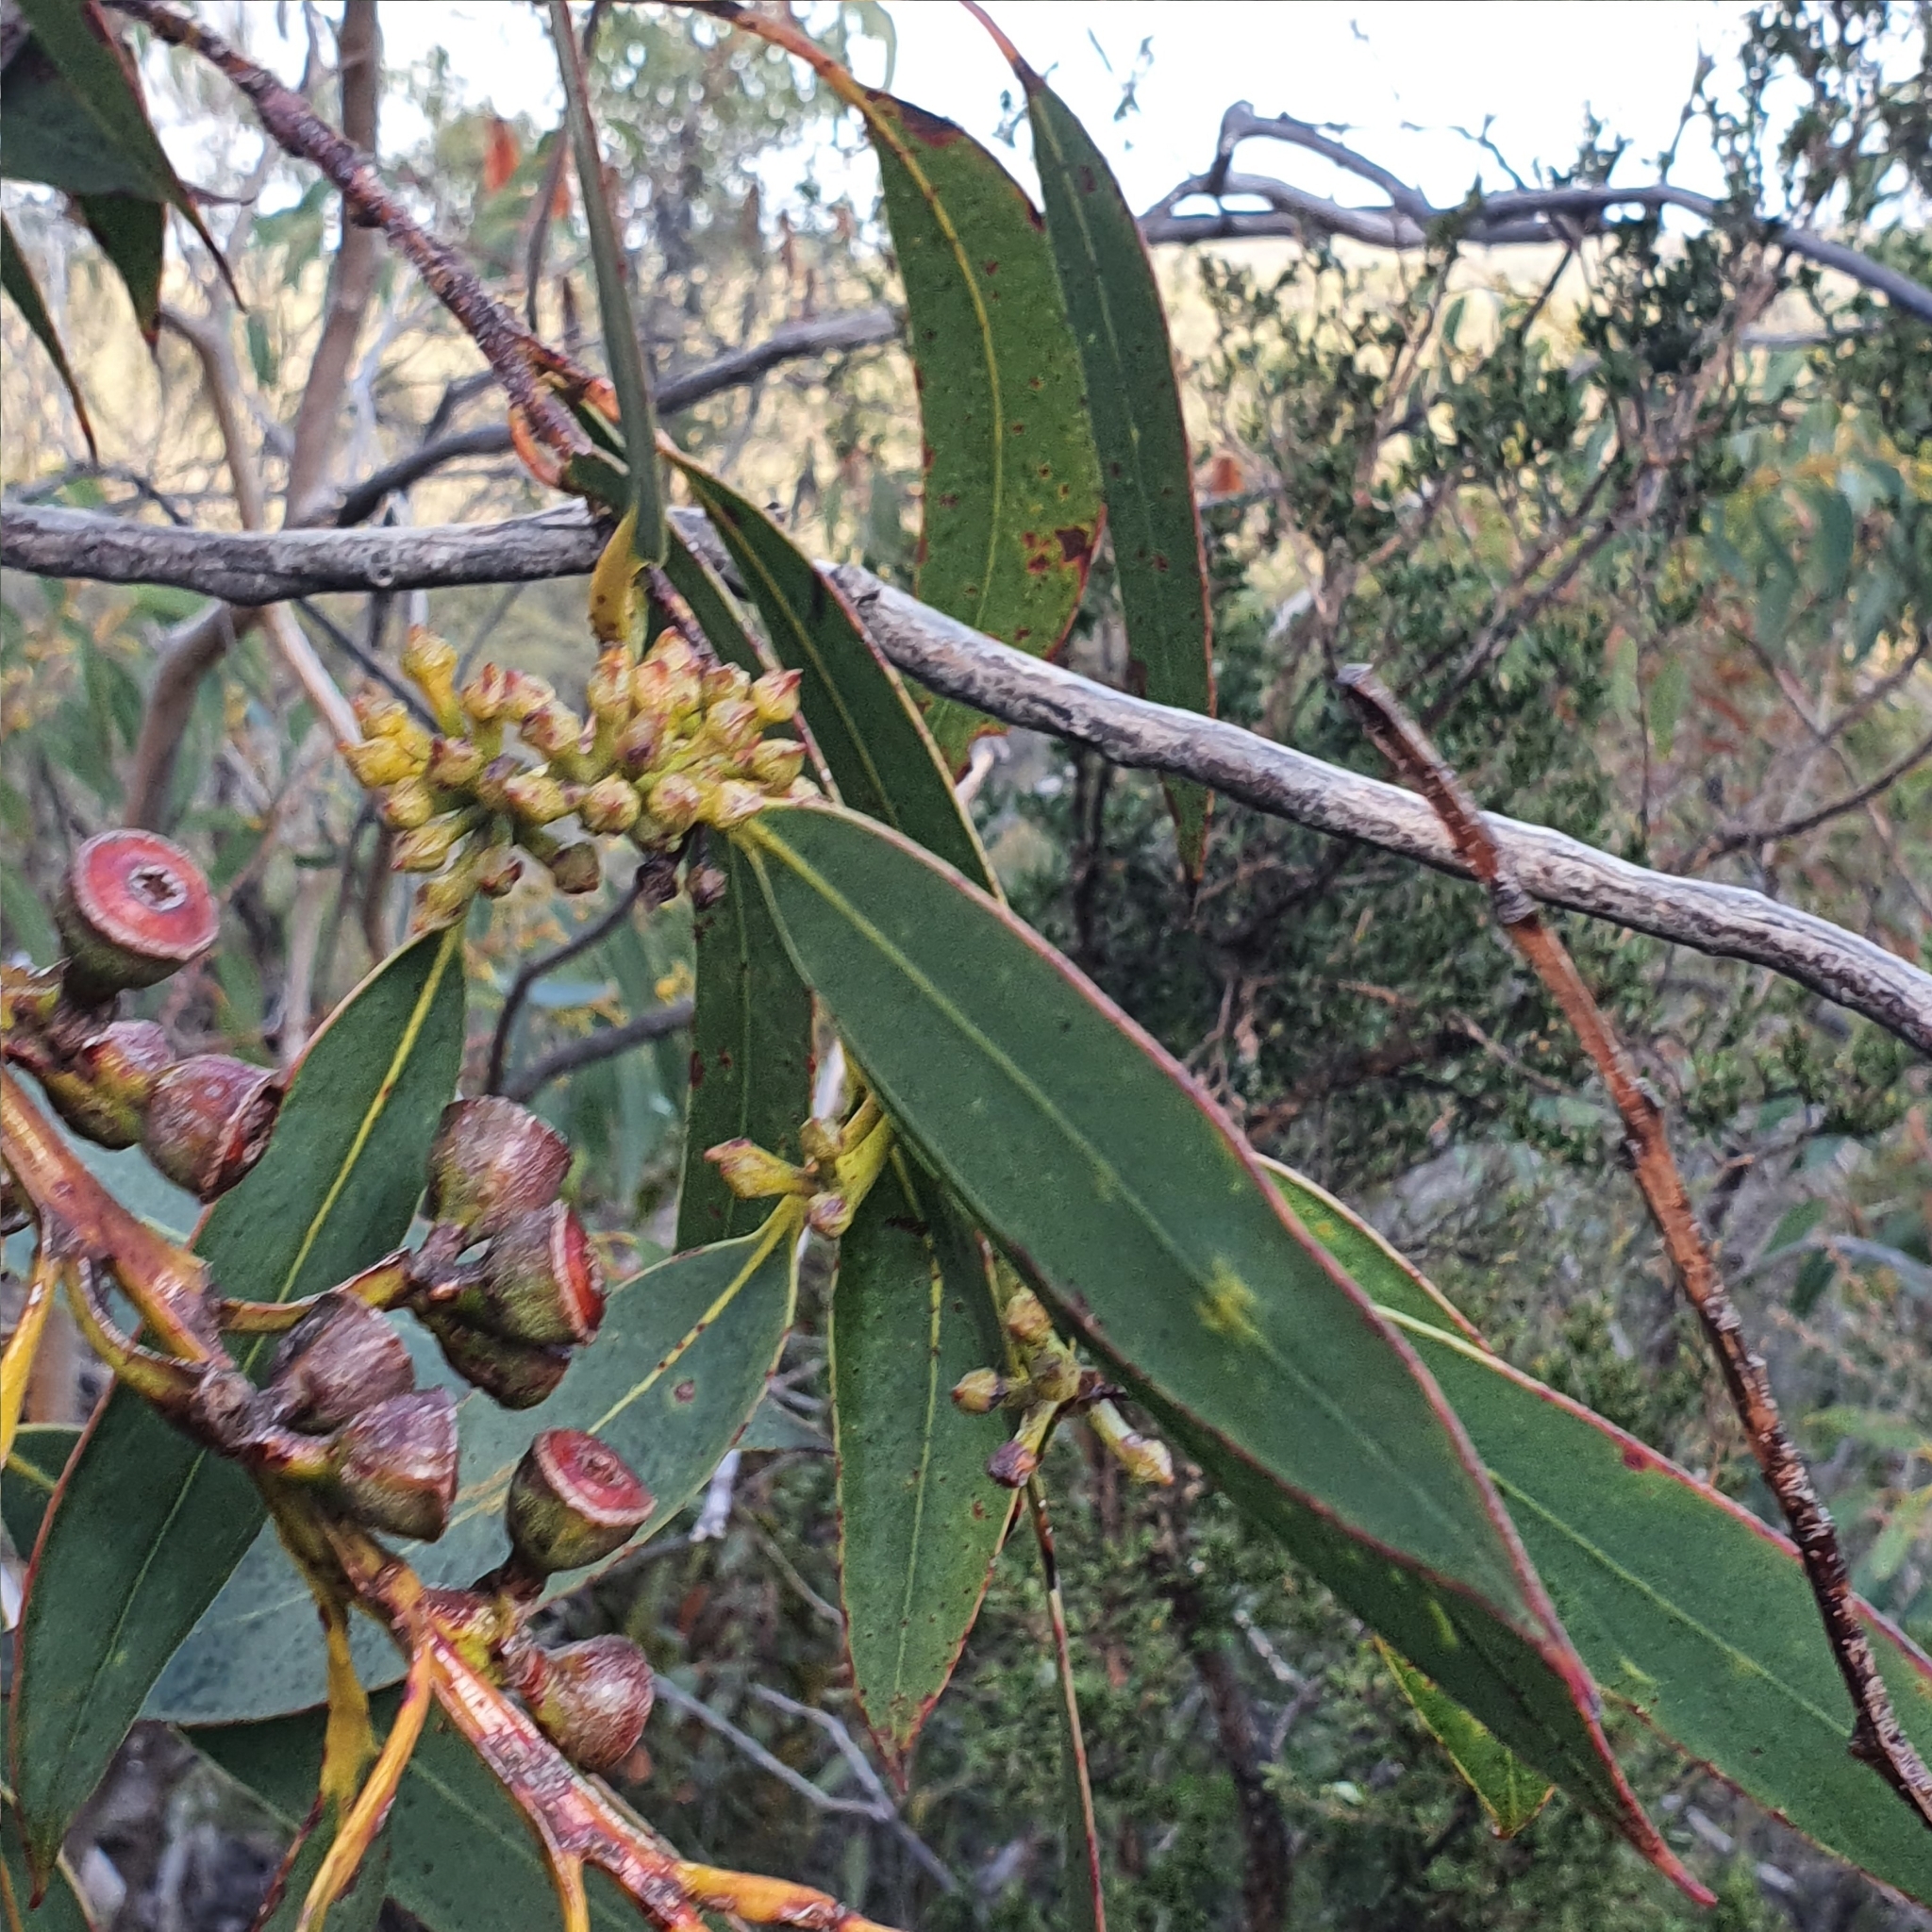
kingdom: Plantae
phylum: Tracheophyta
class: Magnoliopsida
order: Myrtales
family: Myrtaceae
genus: Eucalyptus
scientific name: Eucalyptus luehmanniana
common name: Yellow-top mallee ash
